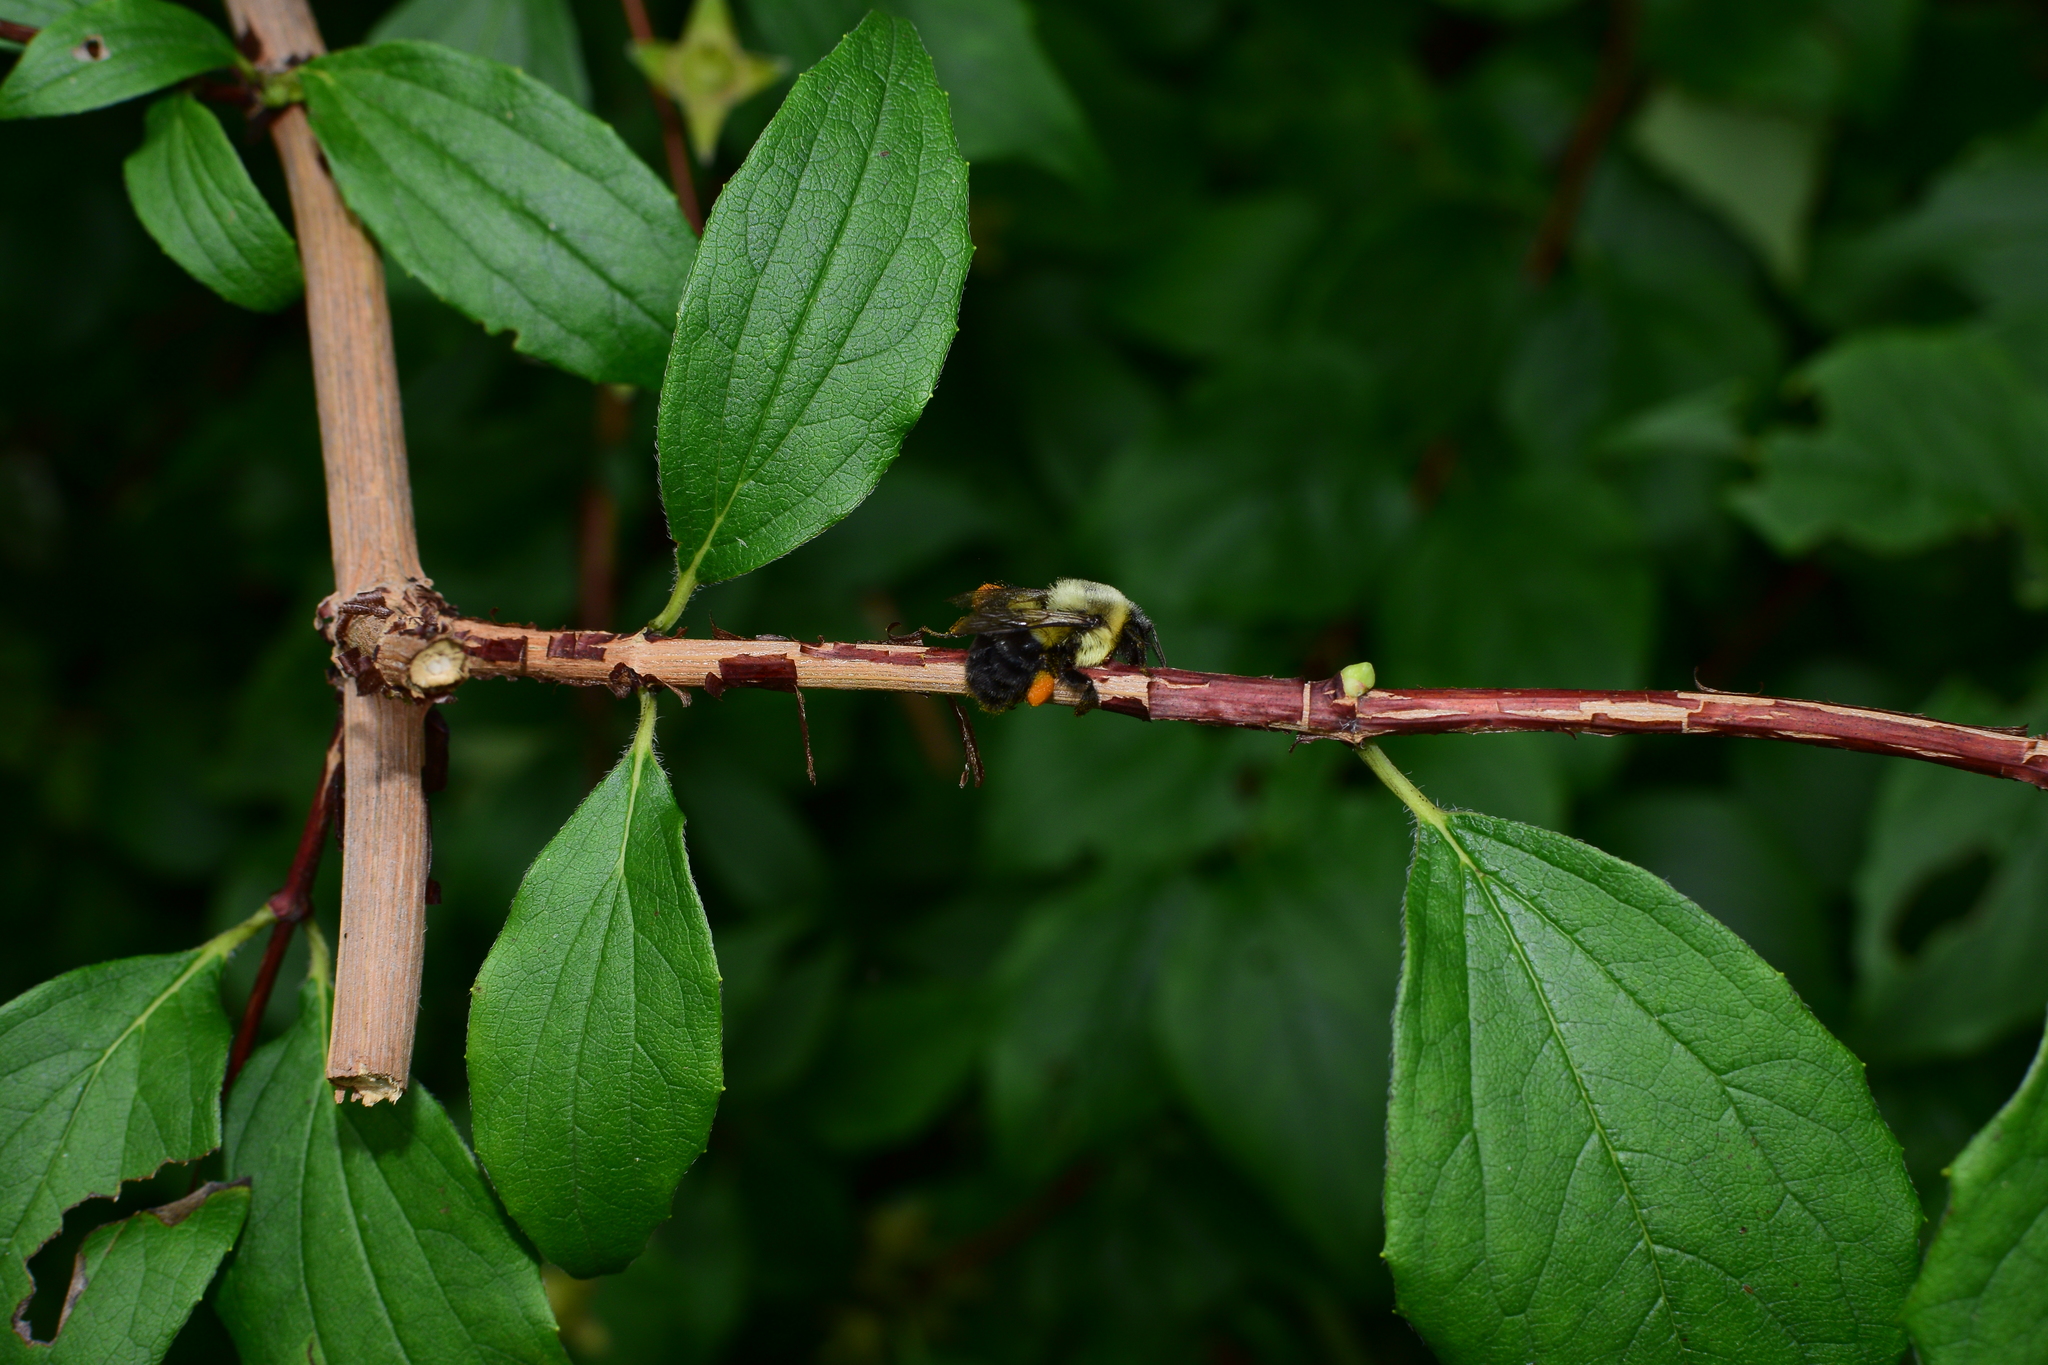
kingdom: Animalia
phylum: Arthropoda
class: Insecta
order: Hymenoptera
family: Apidae
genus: Bombus
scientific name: Bombus impatiens
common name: Common eastern bumble bee
